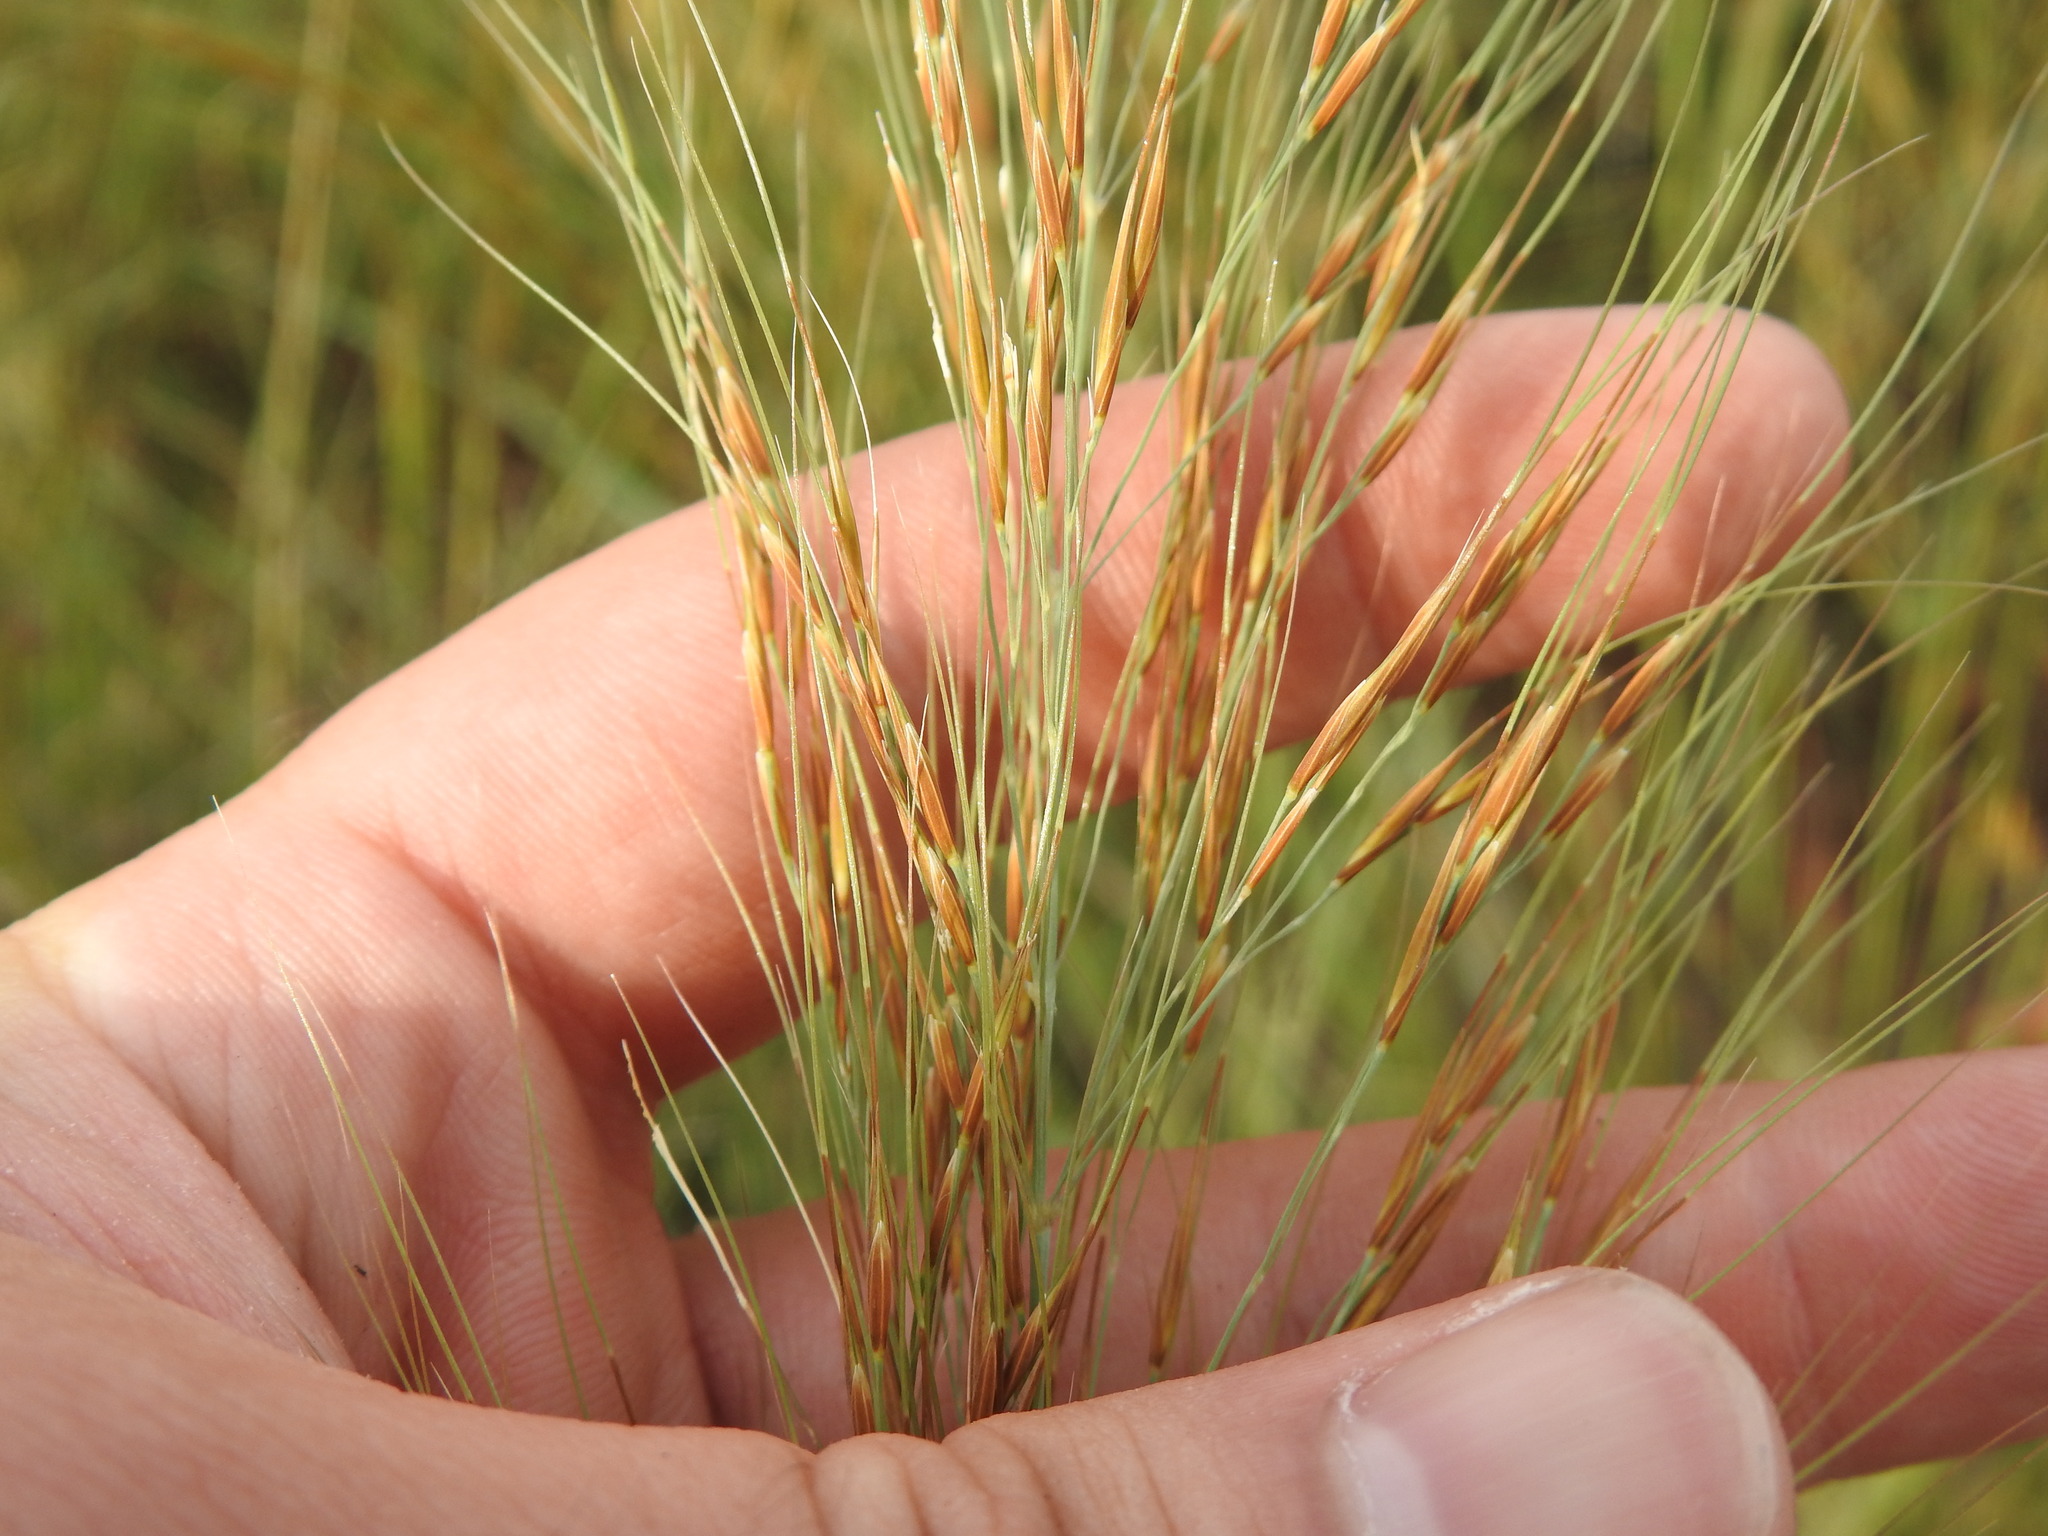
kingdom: Plantae
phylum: Tracheophyta
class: Liliopsida
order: Poales
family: Poaceae
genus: Loudetia
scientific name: Loudetia simplex
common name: Common russet grass
